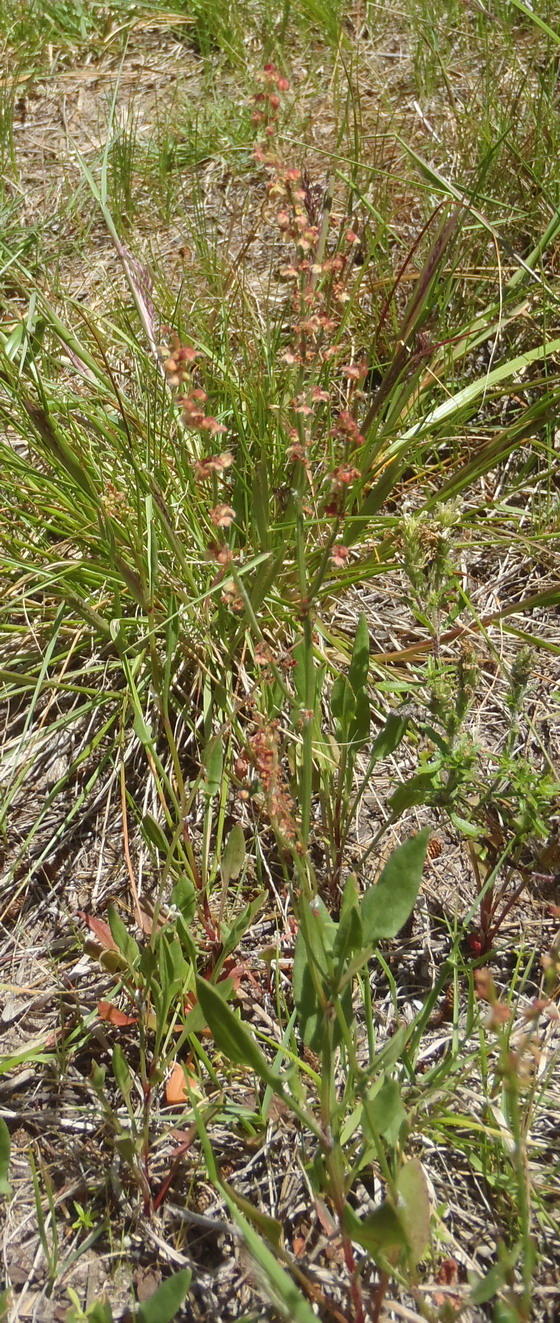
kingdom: Plantae
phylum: Tracheophyta
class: Magnoliopsida
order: Caryophyllales
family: Polygonaceae
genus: Rumex
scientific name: Rumex acetosella
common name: Common sheep sorrel
